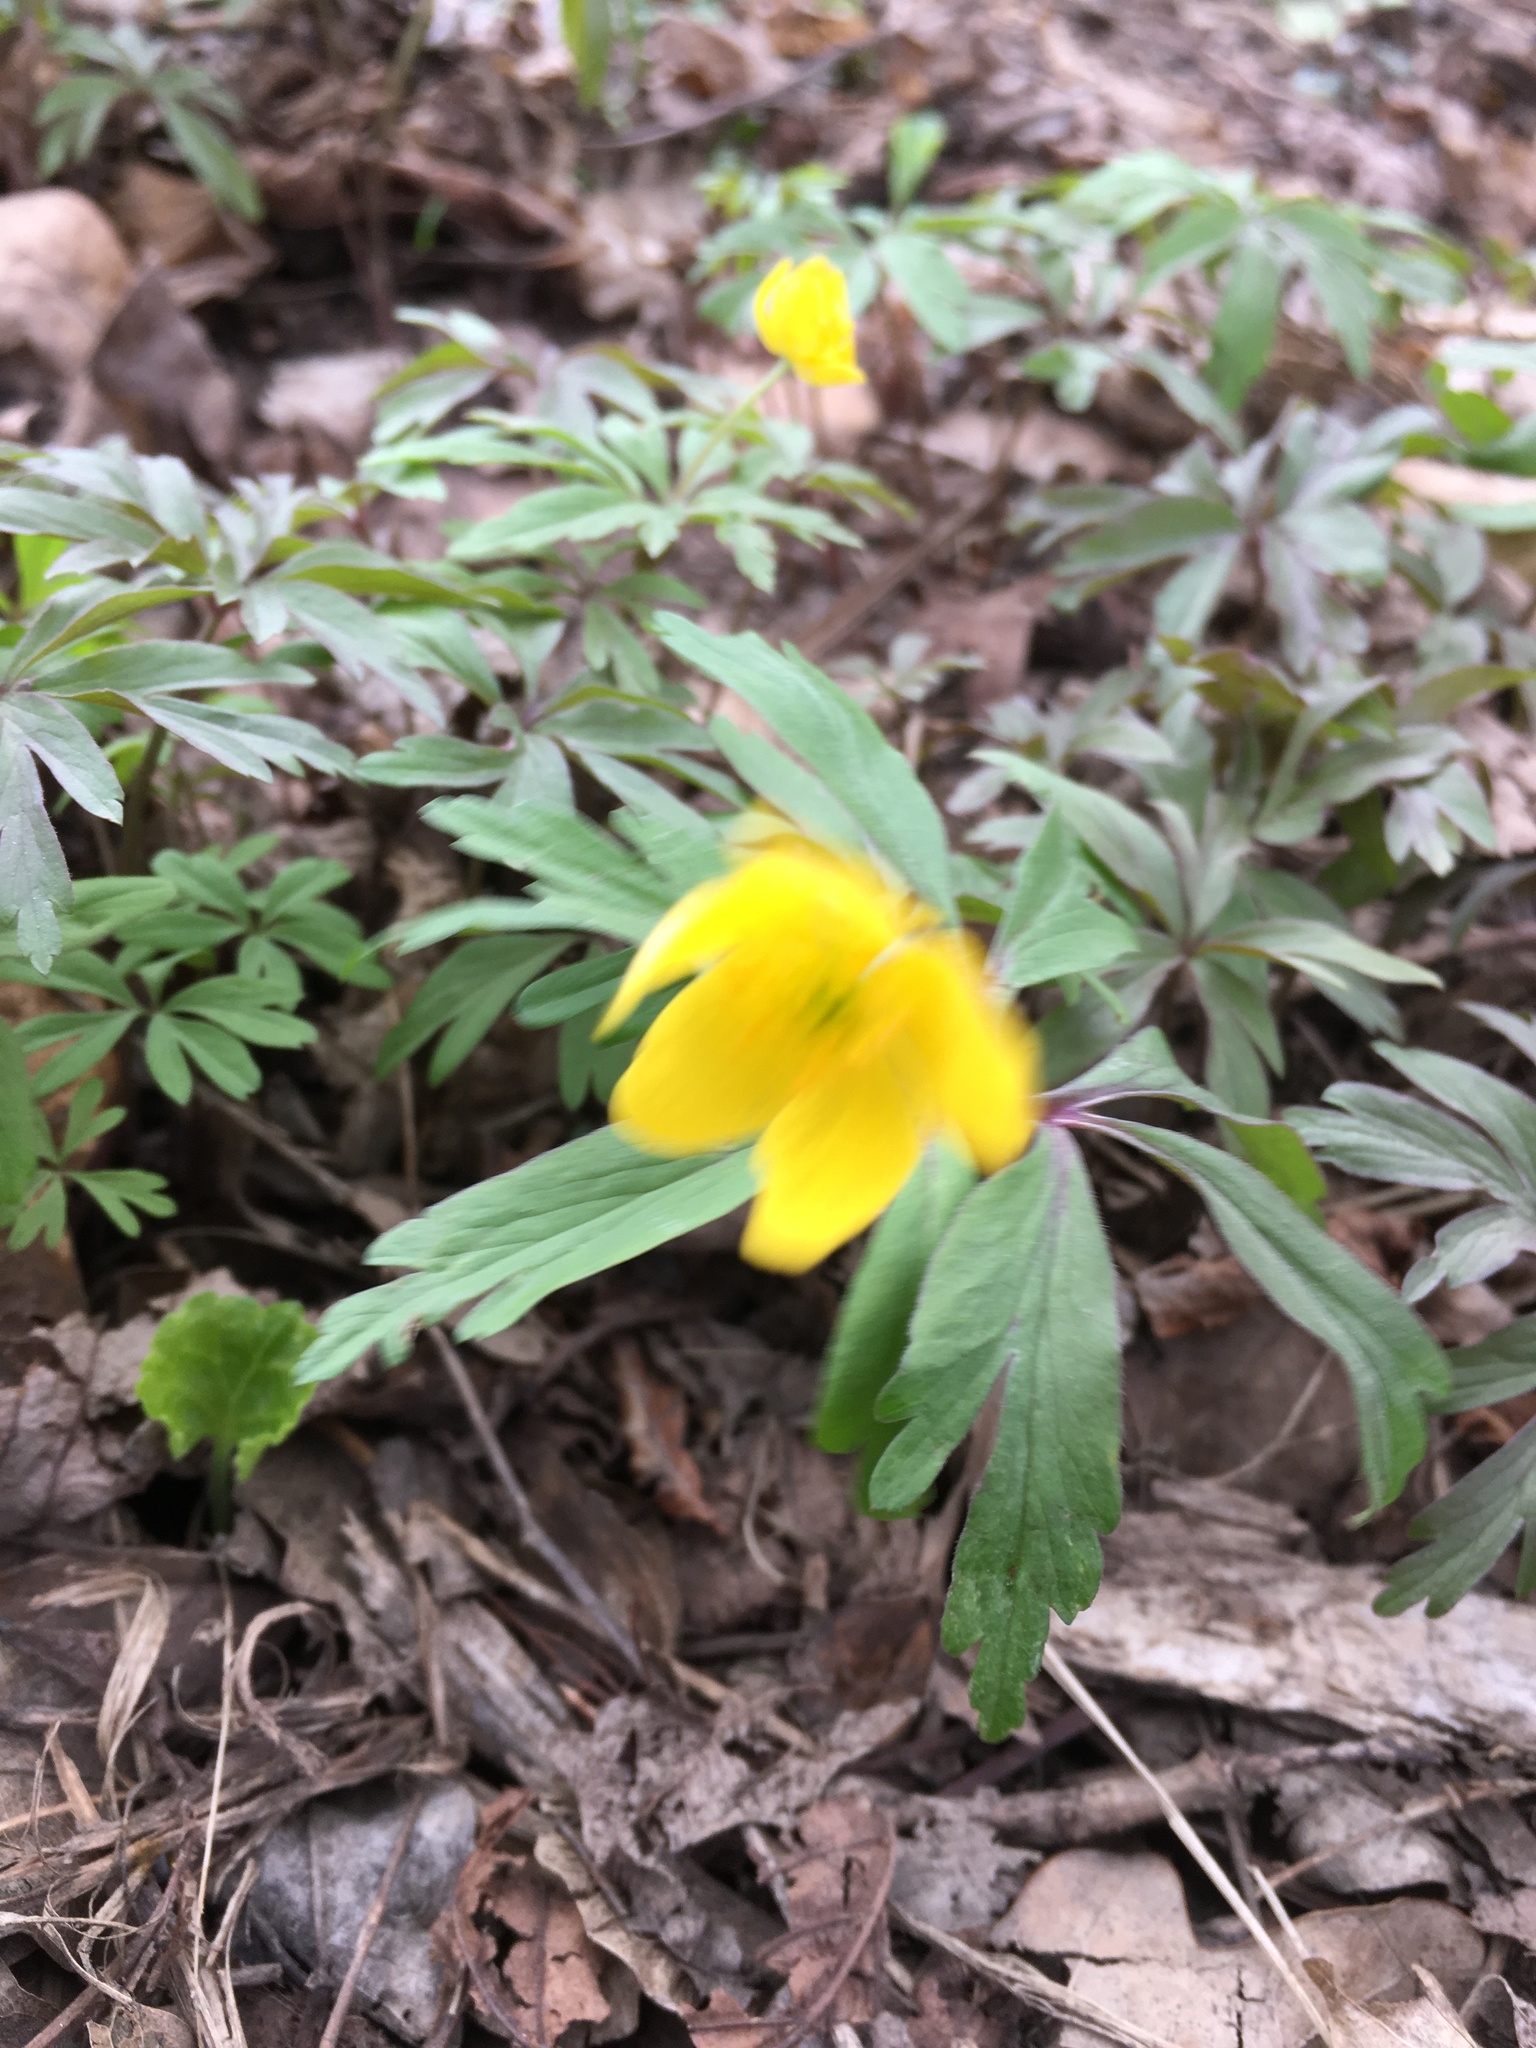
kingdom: Plantae
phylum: Tracheophyta
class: Magnoliopsida
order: Ranunculales
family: Ranunculaceae
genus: Anemone
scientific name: Anemone ranunculoides
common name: Yellow anemone
